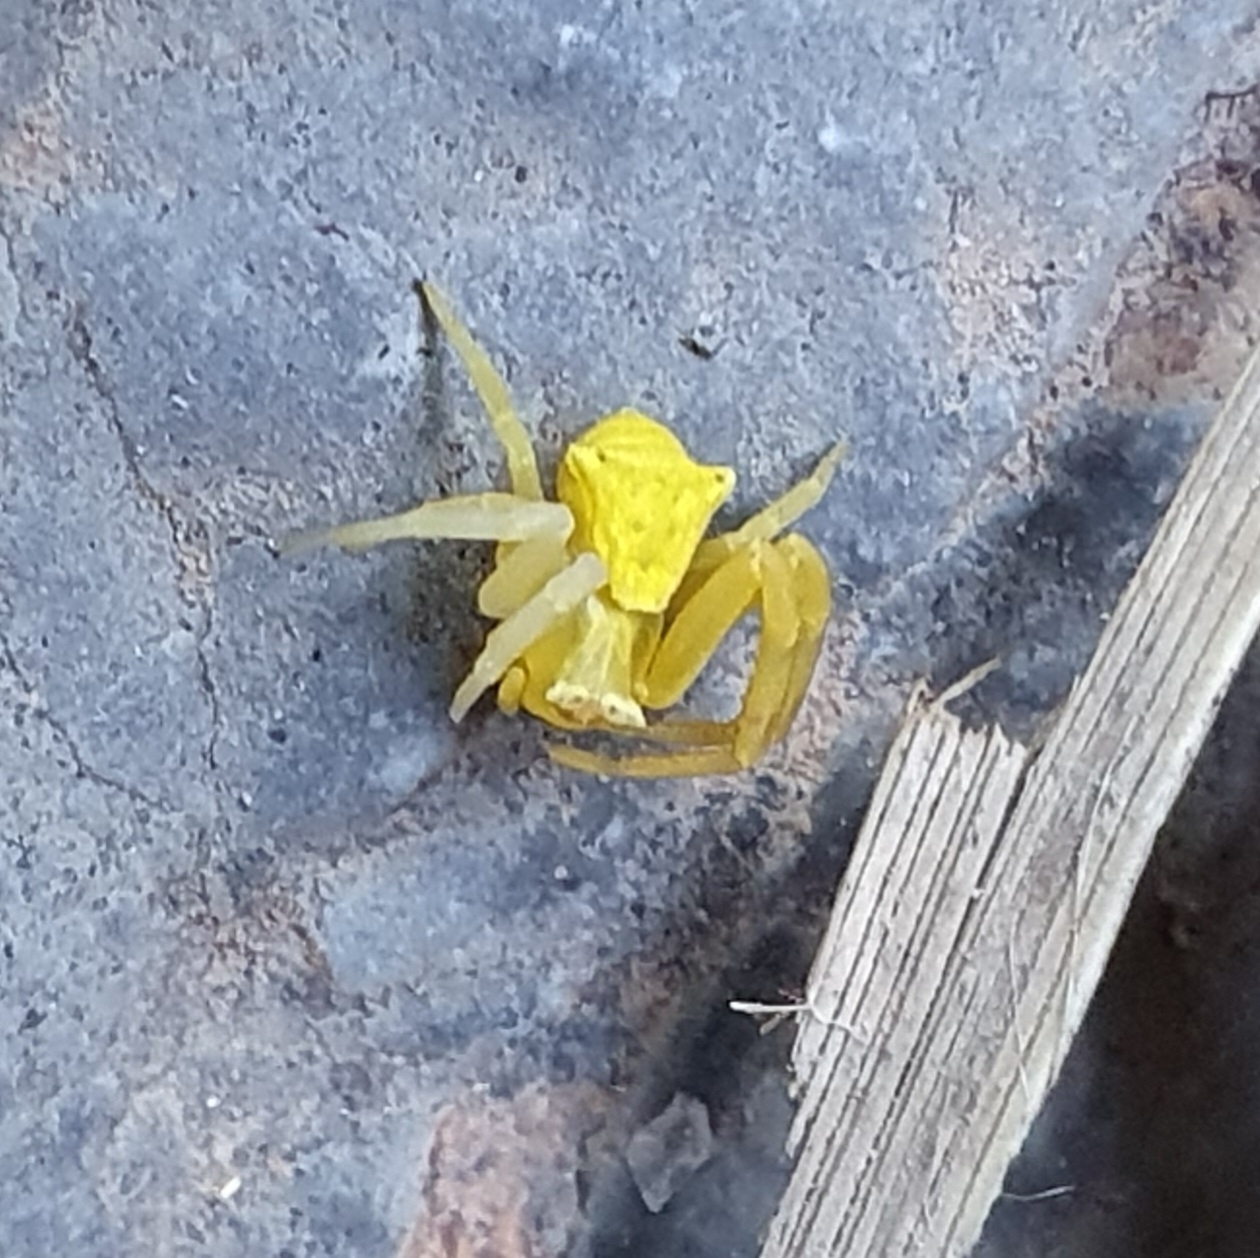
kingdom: Animalia
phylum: Arthropoda
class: Arachnida
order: Araneae
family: Thomisidae
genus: Thomisus
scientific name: Thomisus onustus
